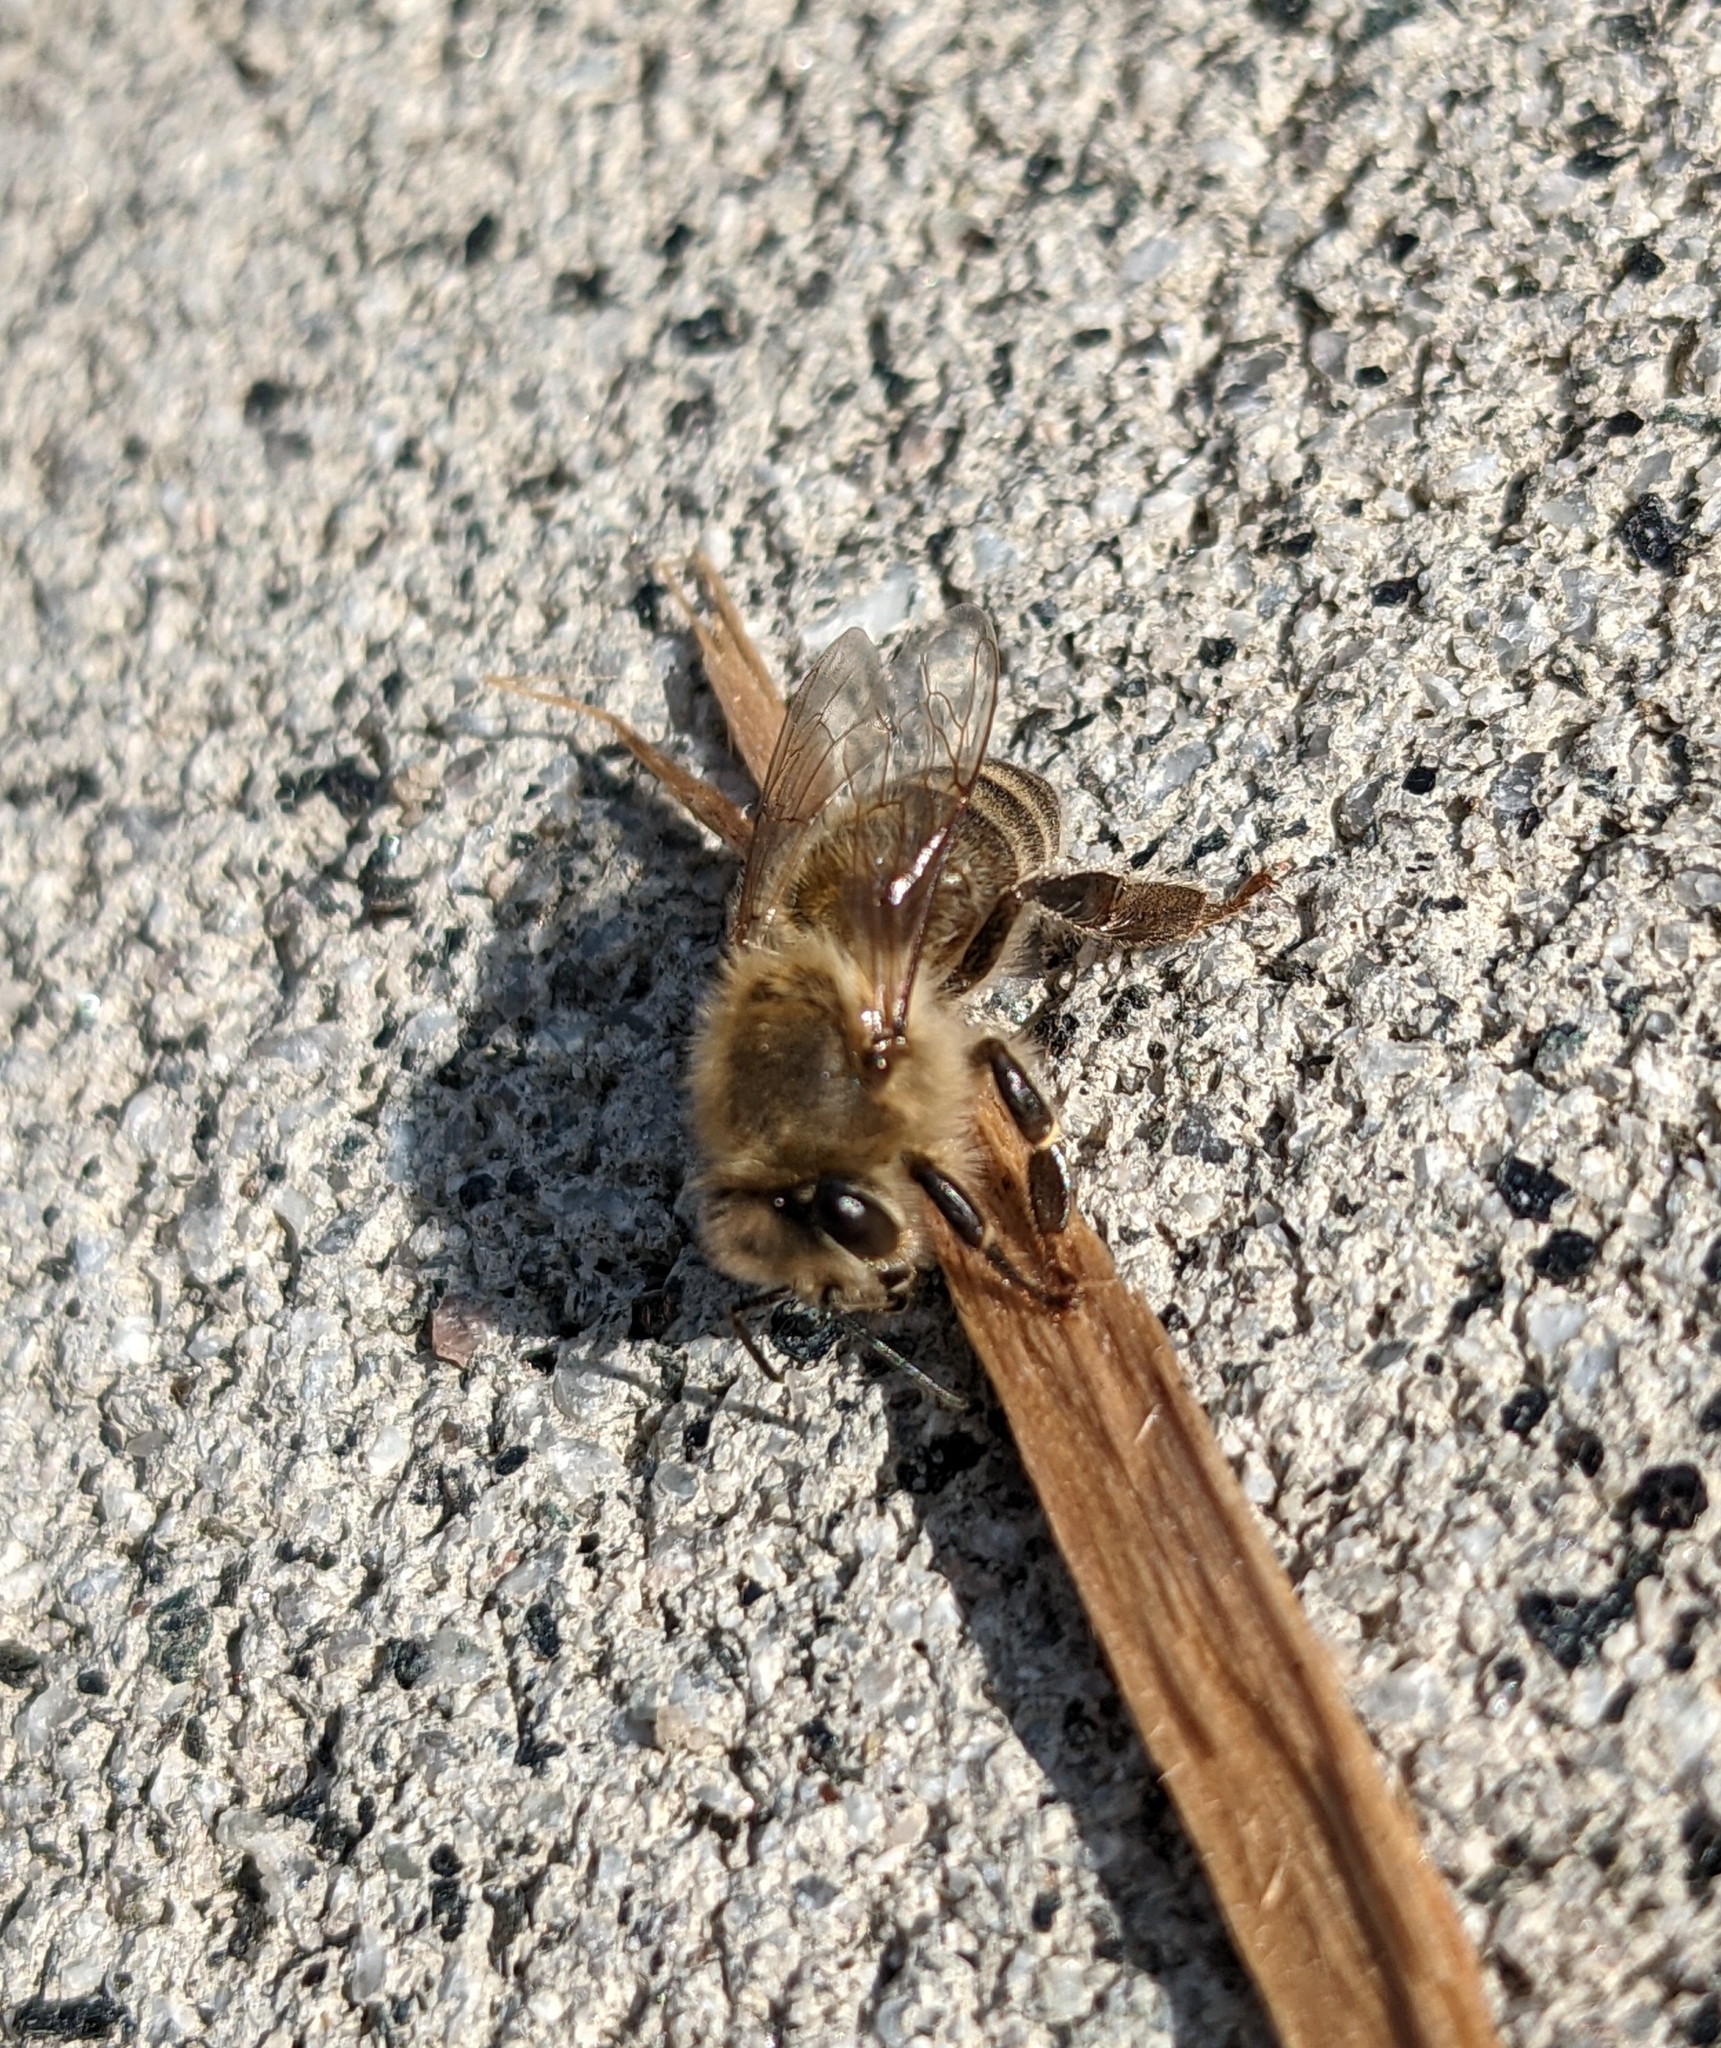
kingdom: Animalia
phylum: Arthropoda
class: Insecta
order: Hymenoptera
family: Apidae
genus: Apis
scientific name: Apis mellifera
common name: Honey bee
